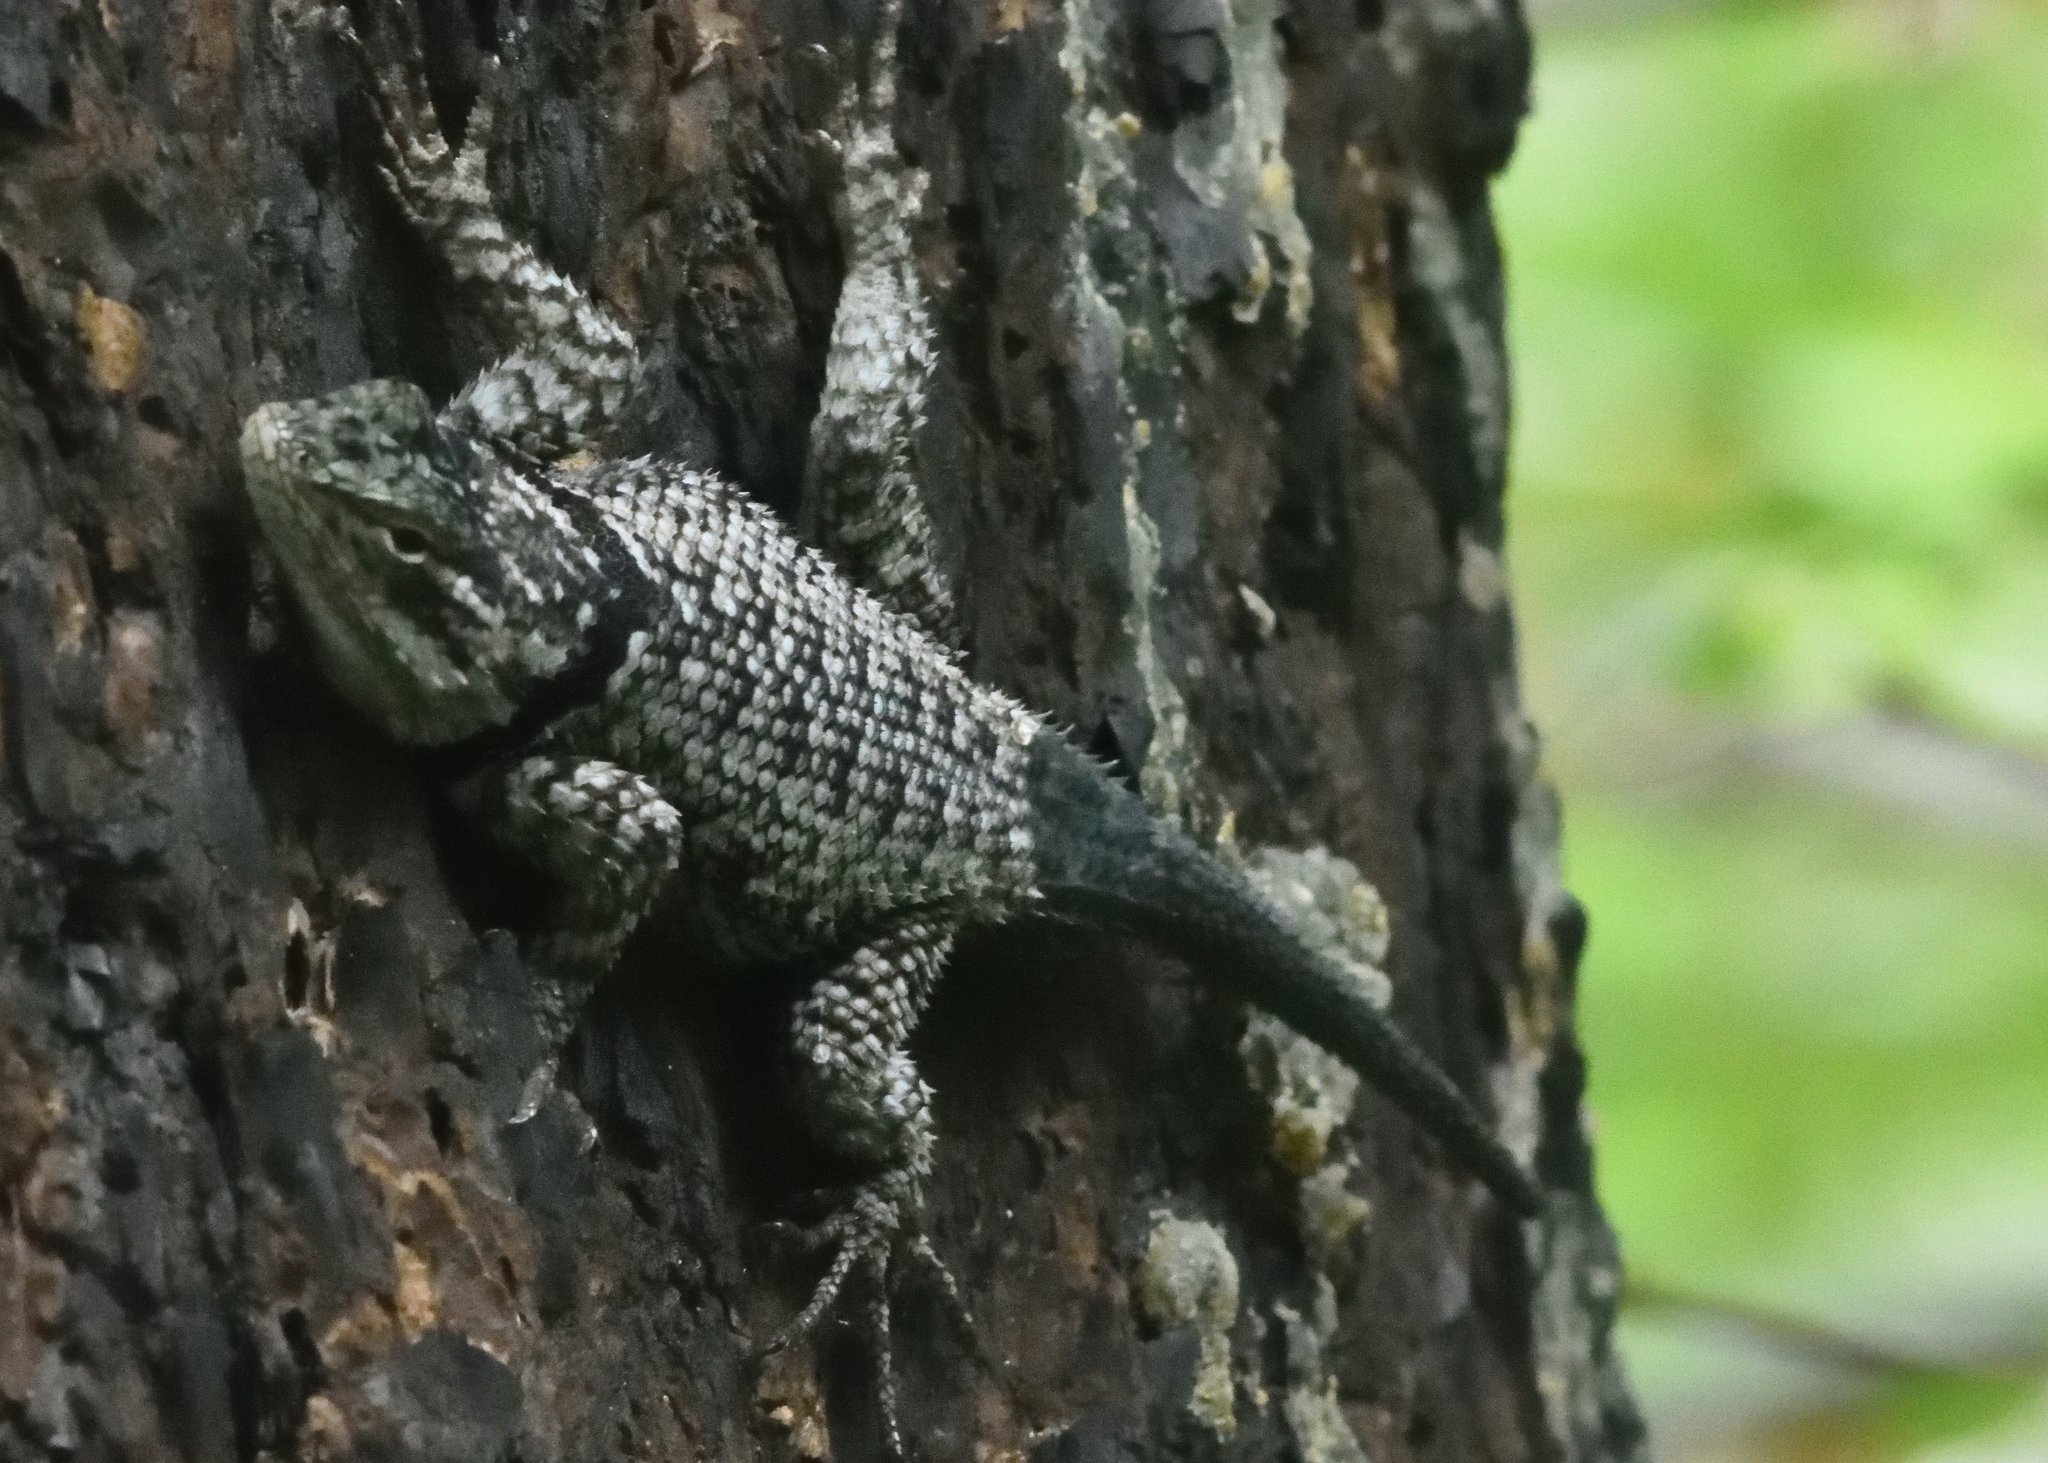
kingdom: Animalia
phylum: Chordata
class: Squamata
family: Phrynosomatidae
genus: Sceloporus
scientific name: Sceloporus jarrovii
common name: Yarrow's spiny lizard
